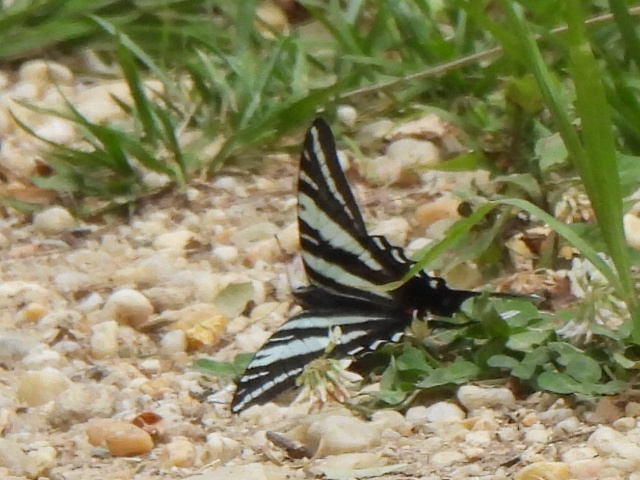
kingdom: Animalia
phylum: Arthropoda
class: Insecta
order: Lepidoptera
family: Papilionidae
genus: Protographium
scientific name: Protographium marcellus
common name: Zebra swallowtail
